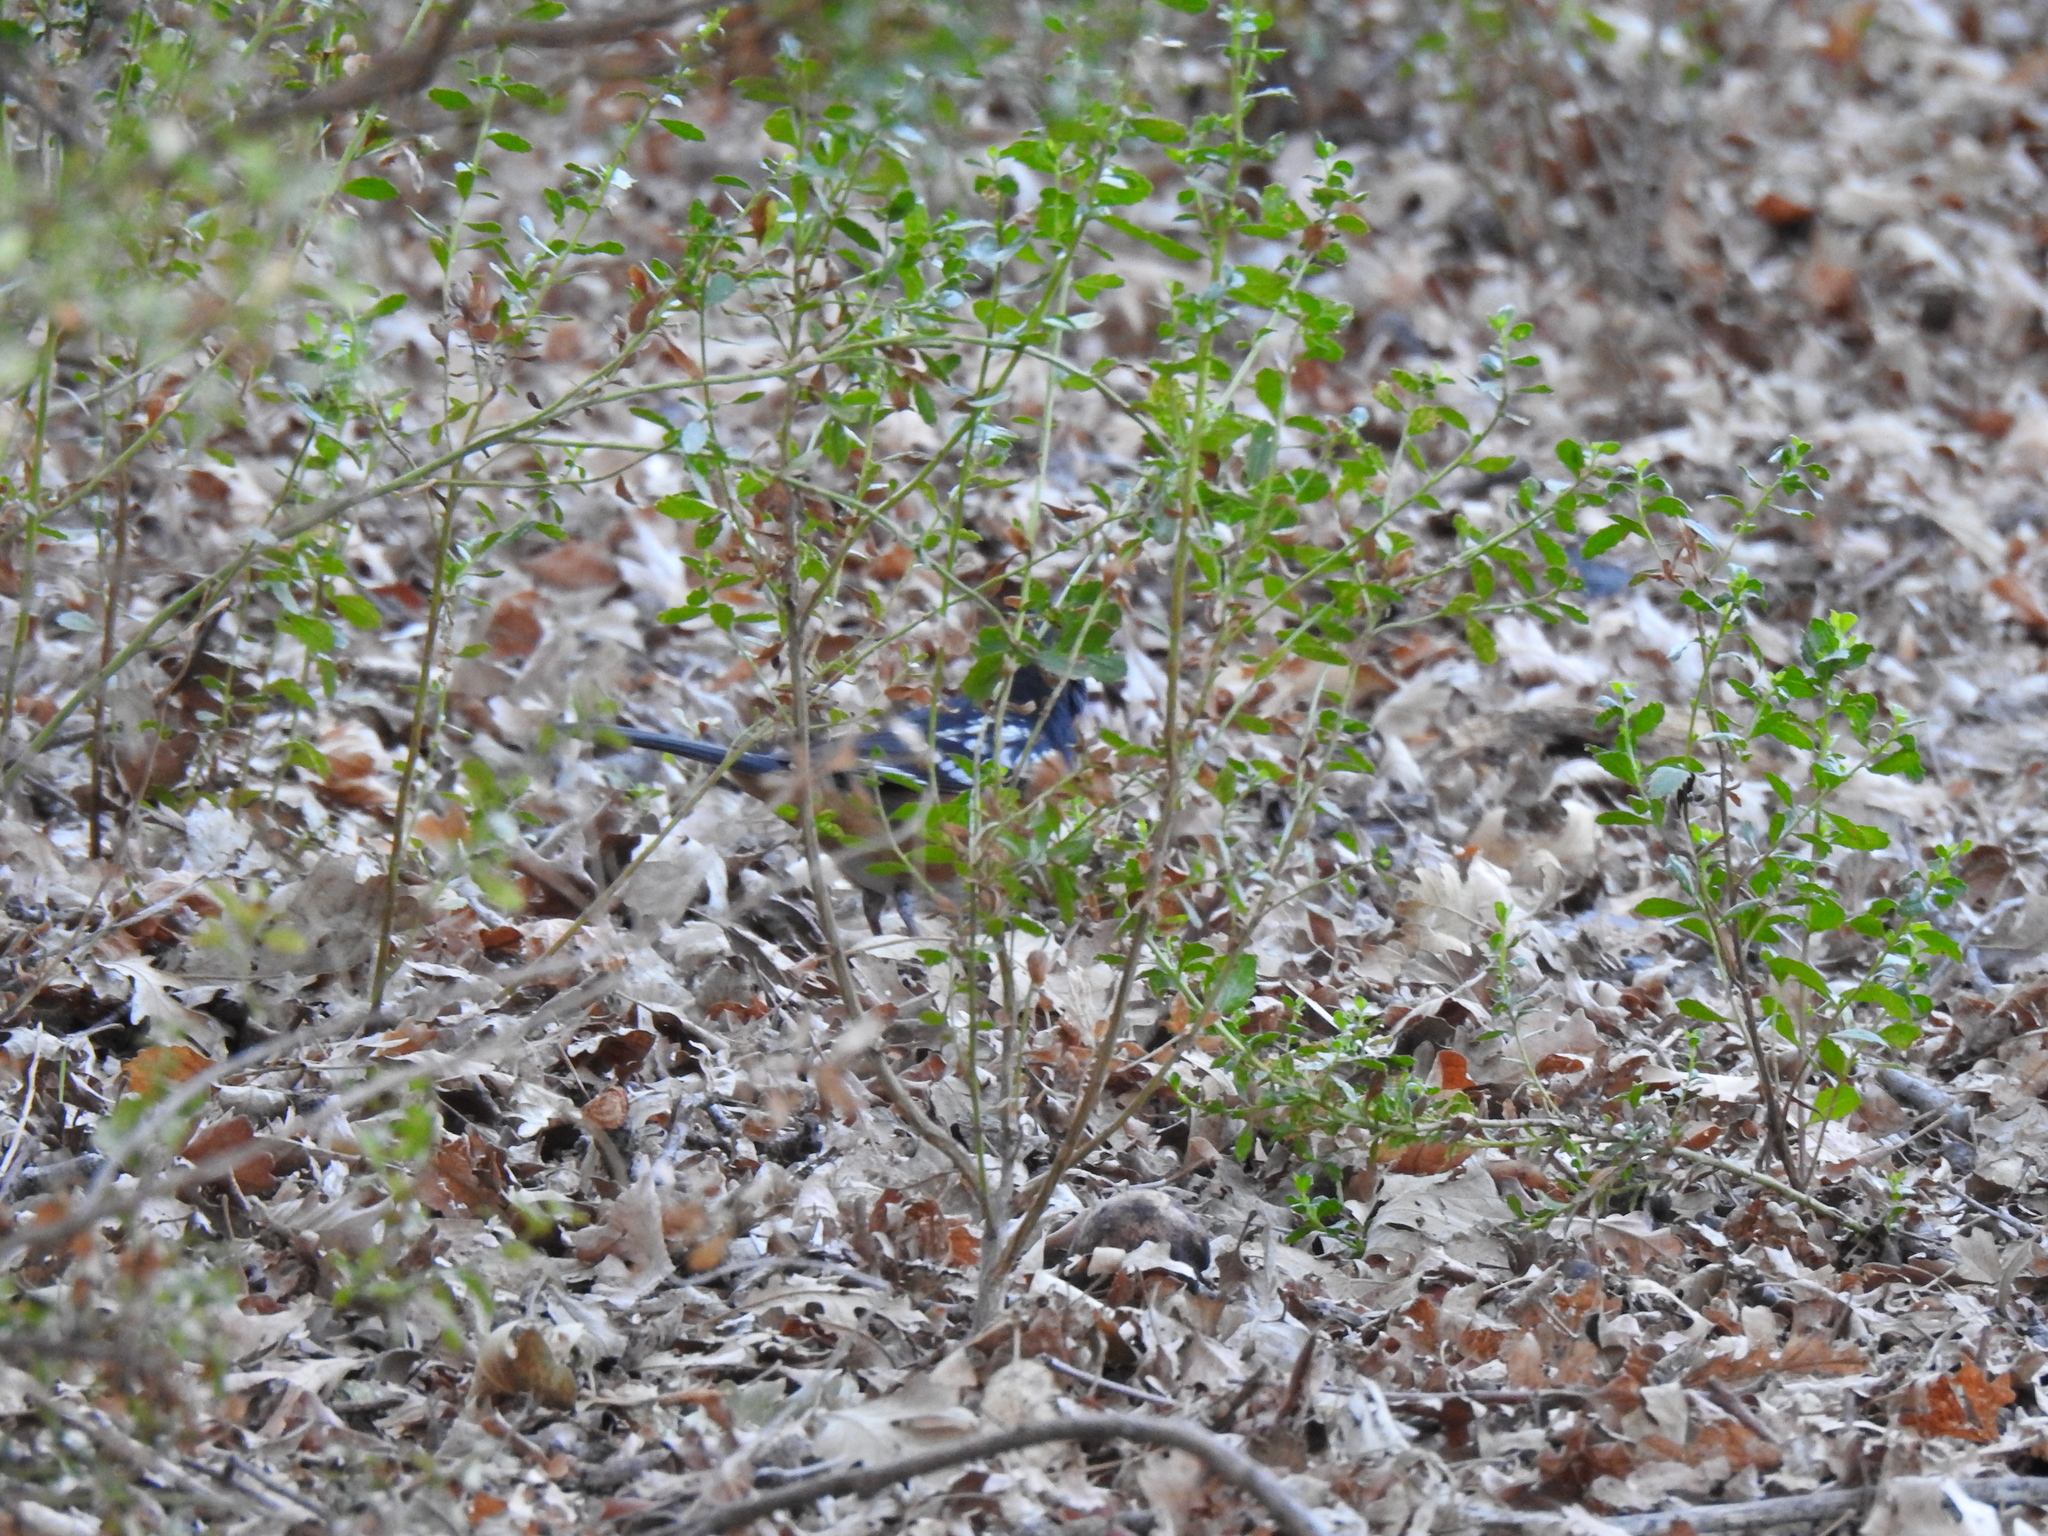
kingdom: Animalia
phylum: Chordata
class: Aves
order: Passeriformes
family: Passerellidae
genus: Pipilo
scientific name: Pipilo maculatus
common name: Spotted towhee
